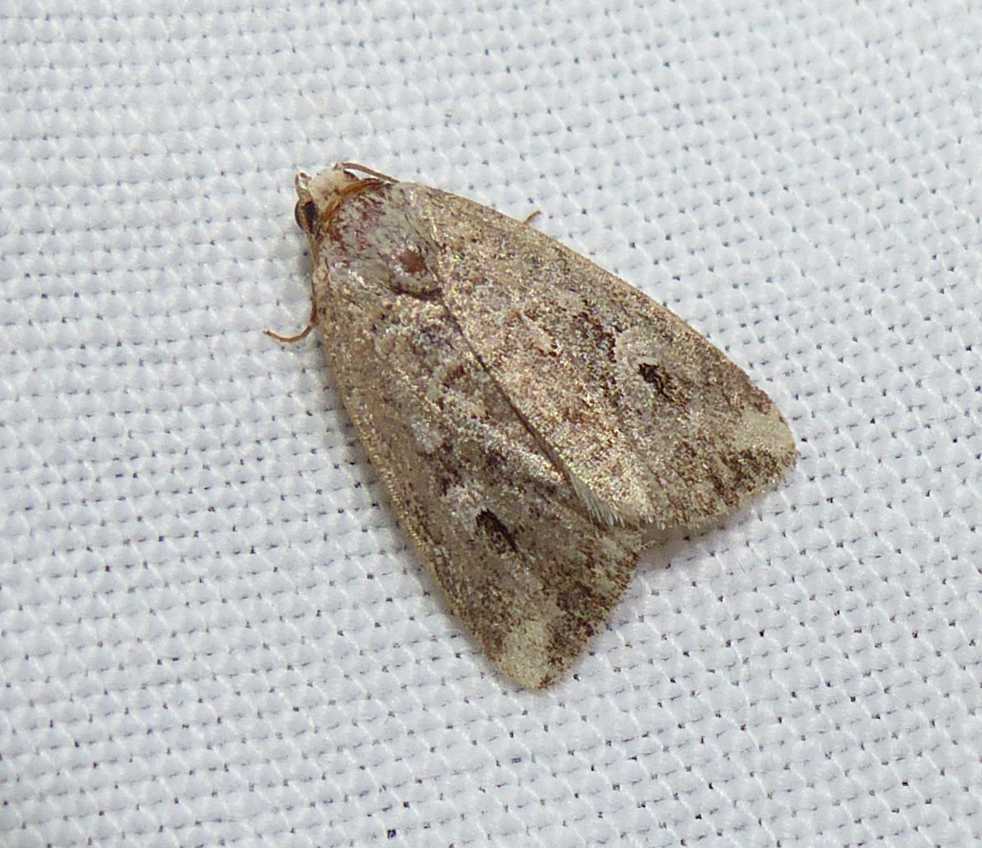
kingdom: Animalia
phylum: Arthropoda
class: Insecta
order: Lepidoptera
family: Noctuidae
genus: Elaphria
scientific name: Elaphria alapallida
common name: Pale-winged midget
